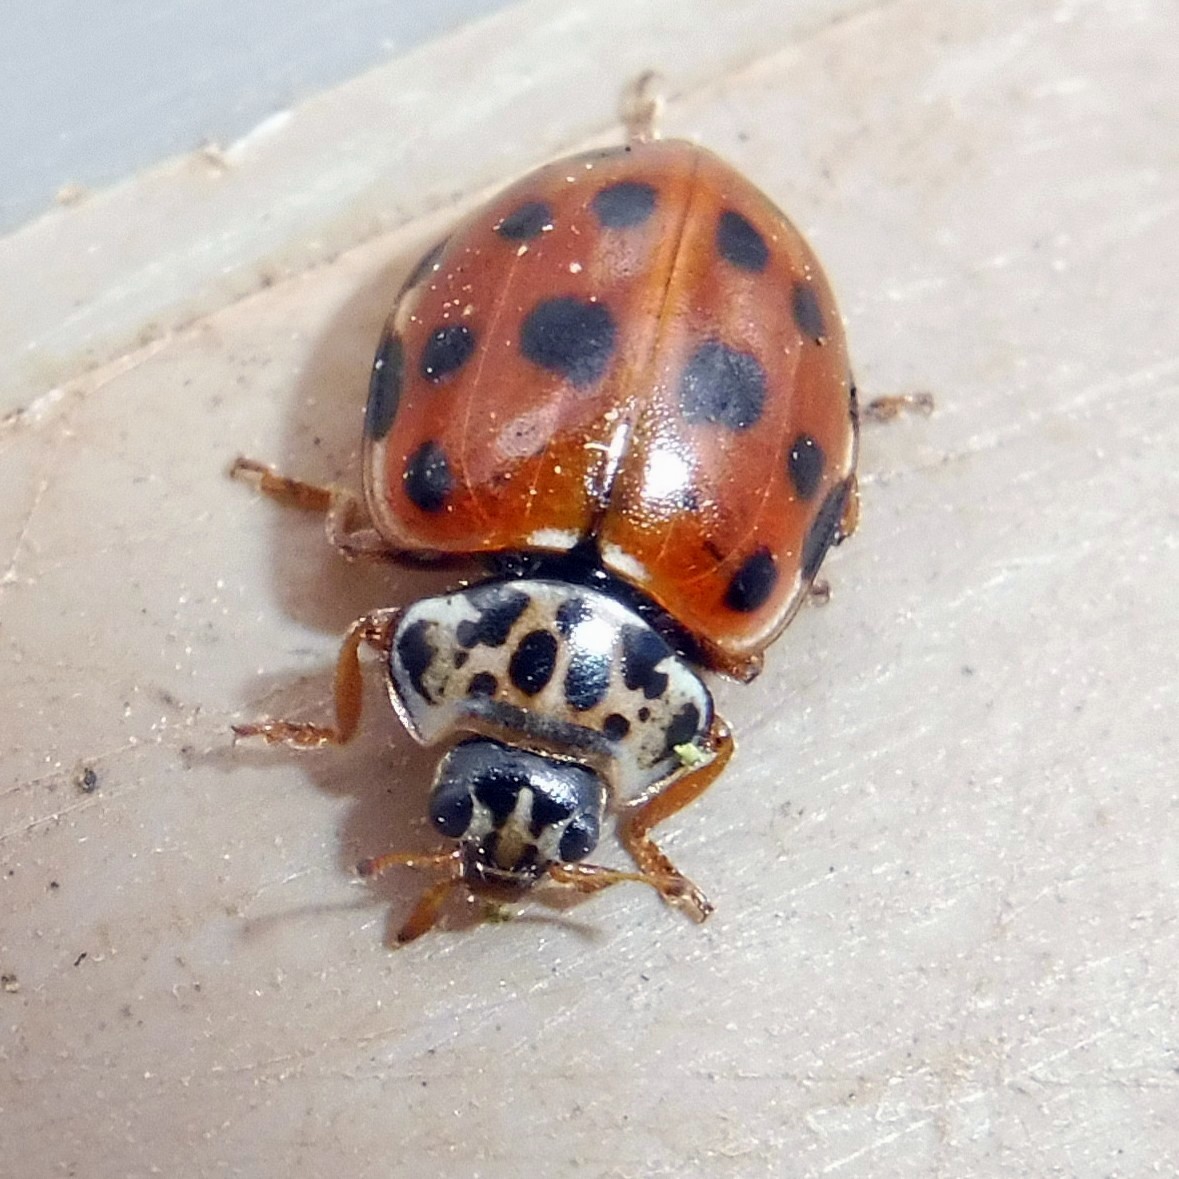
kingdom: Animalia
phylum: Arthropoda
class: Insecta
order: Coleoptera
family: Coccinellidae
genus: Harmonia
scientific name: Harmonia quadripunctata
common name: Cream-streaked ladybird
